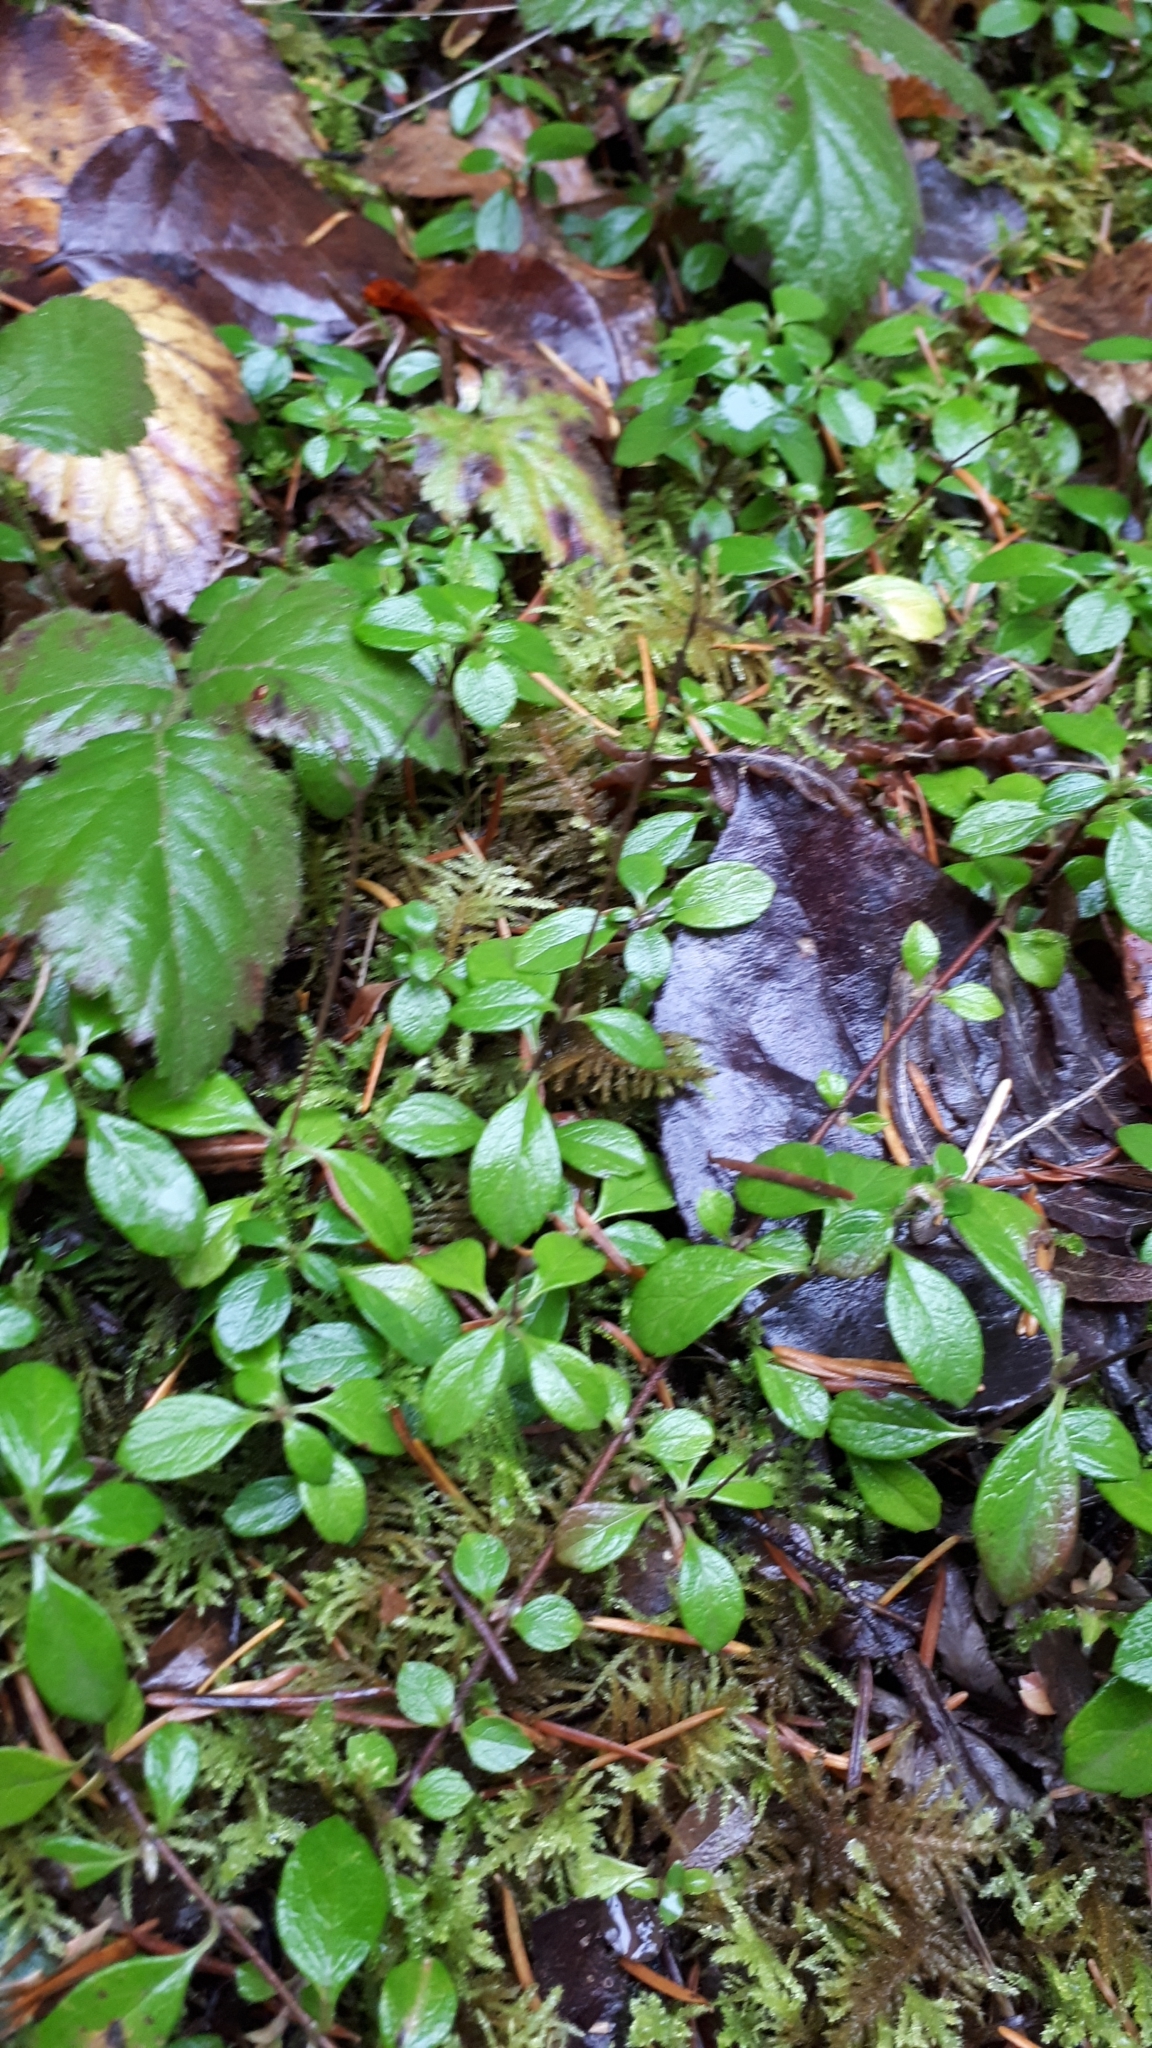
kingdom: Plantae
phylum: Tracheophyta
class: Magnoliopsida
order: Dipsacales
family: Caprifoliaceae
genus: Linnaea
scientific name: Linnaea borealis
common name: Twinflower
